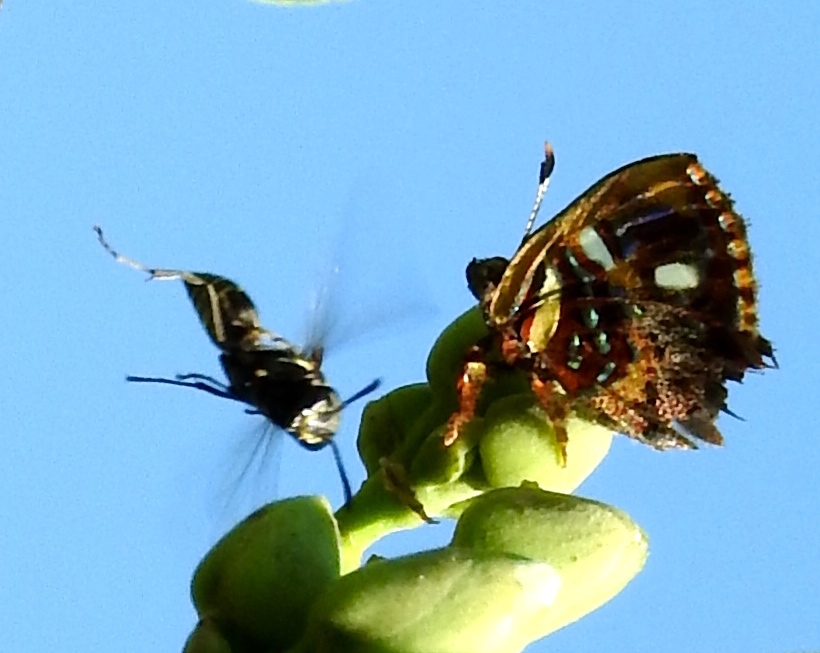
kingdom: Animalia
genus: Anteros
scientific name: Anteros carausius
